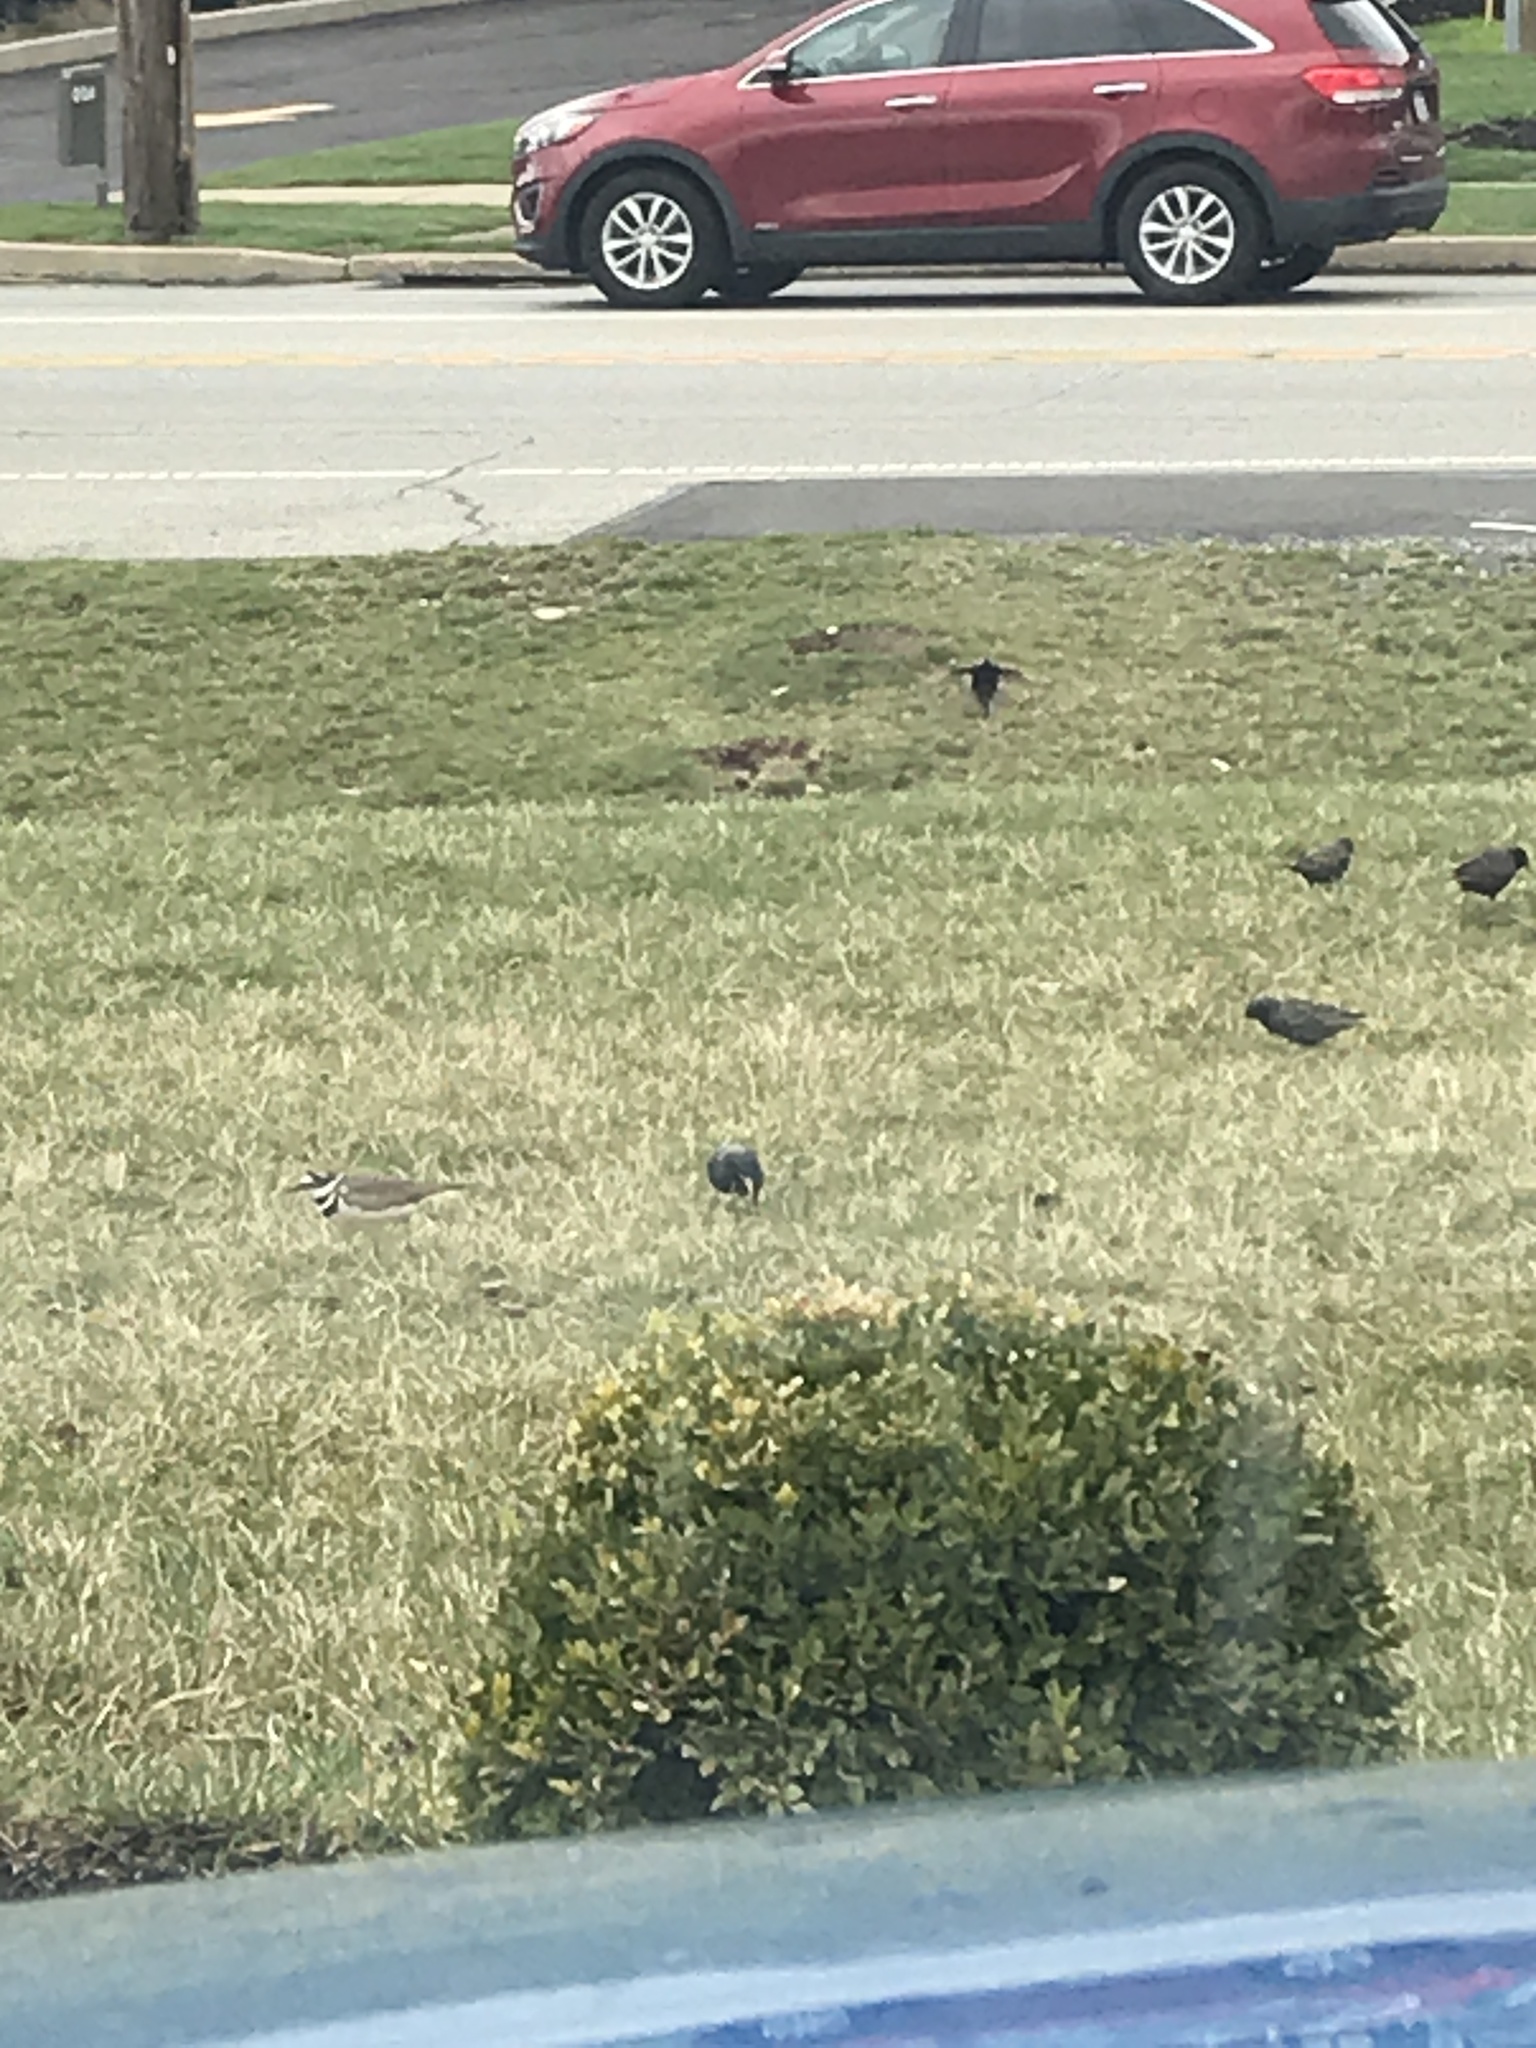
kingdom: Animalia
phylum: Chordata
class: Aves
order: Passeriformes
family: Sturnidae
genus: Sturnus
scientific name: Sturnus vulgaris
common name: Common starling
